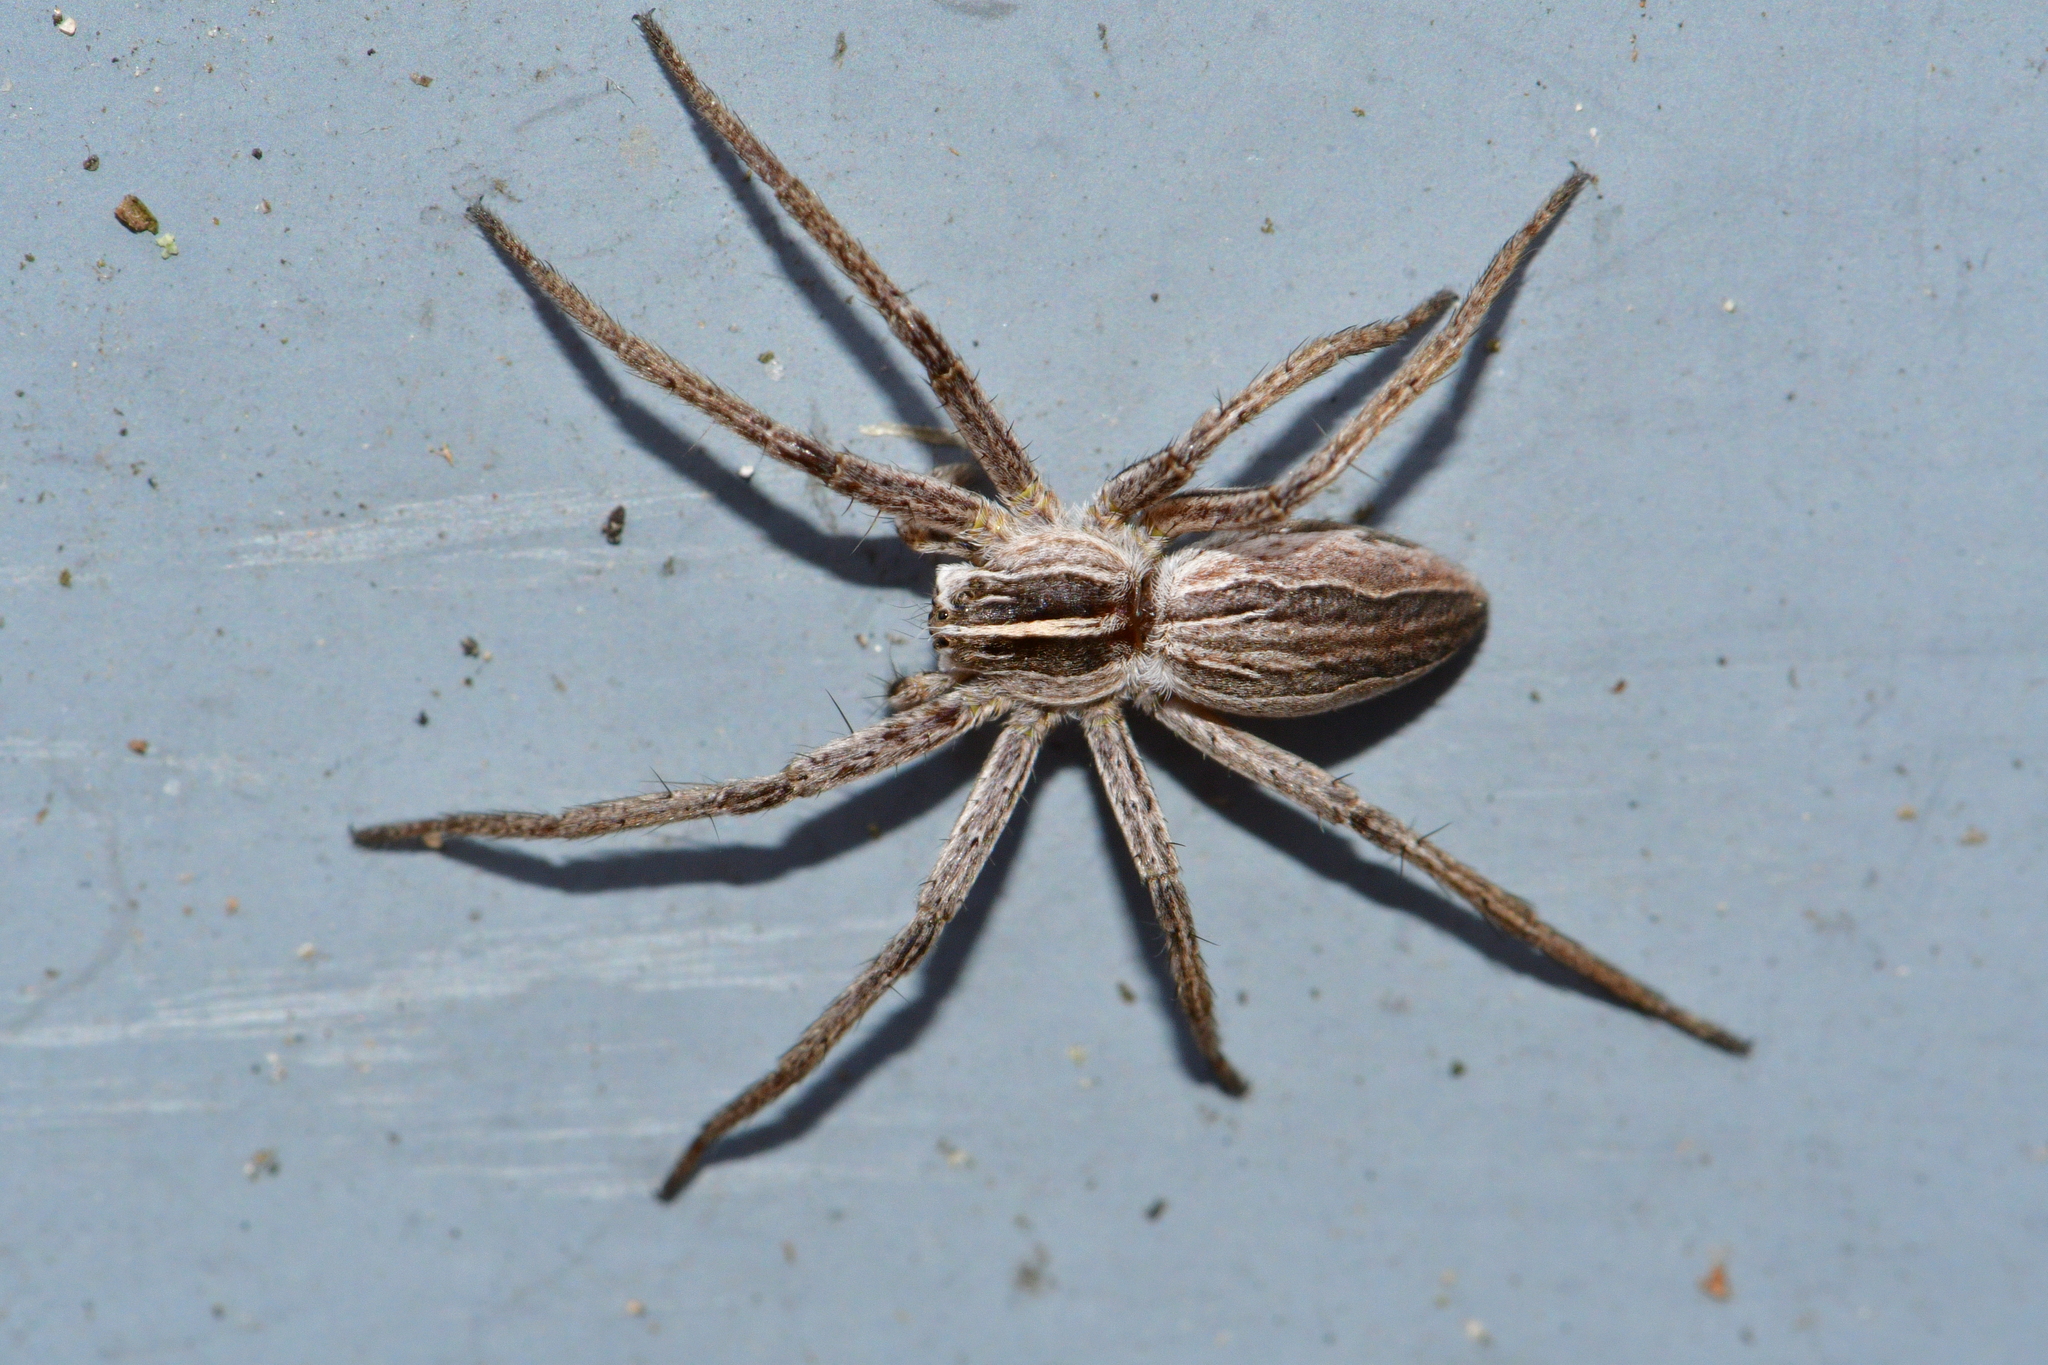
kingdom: Animalia
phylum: Arthropoda
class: Arachnida
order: Araneae
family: Pisauridae
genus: Pisaura
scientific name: Pisaura mirabilis
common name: Tent spider
